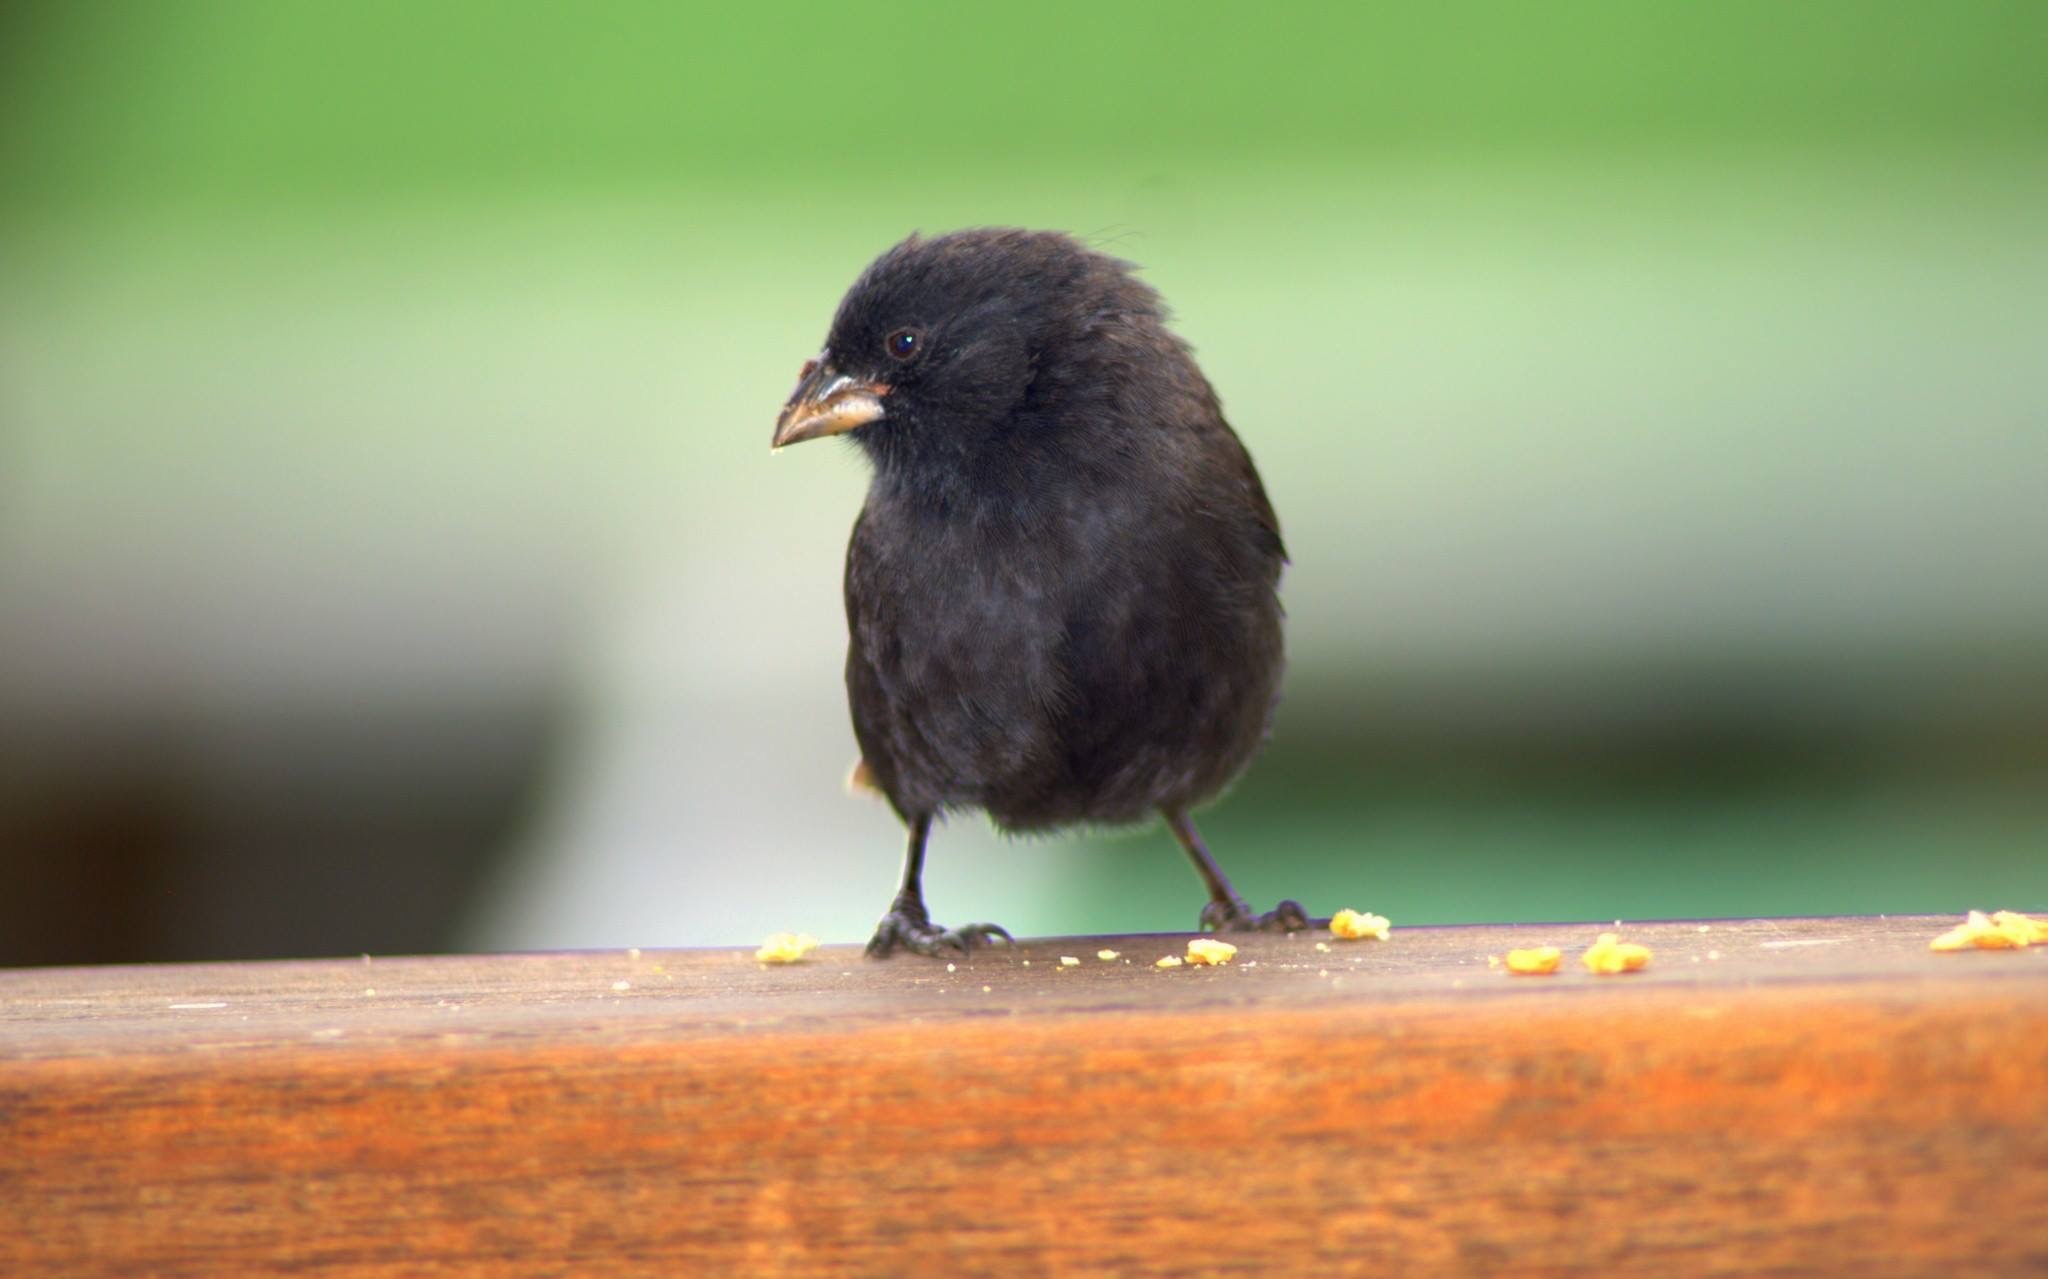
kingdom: Animalia
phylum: Chordata
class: Aves
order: Passeriformes
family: Thraupidae
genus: Geospiza
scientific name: Geospiza fuliginosa
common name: Small ground finch
